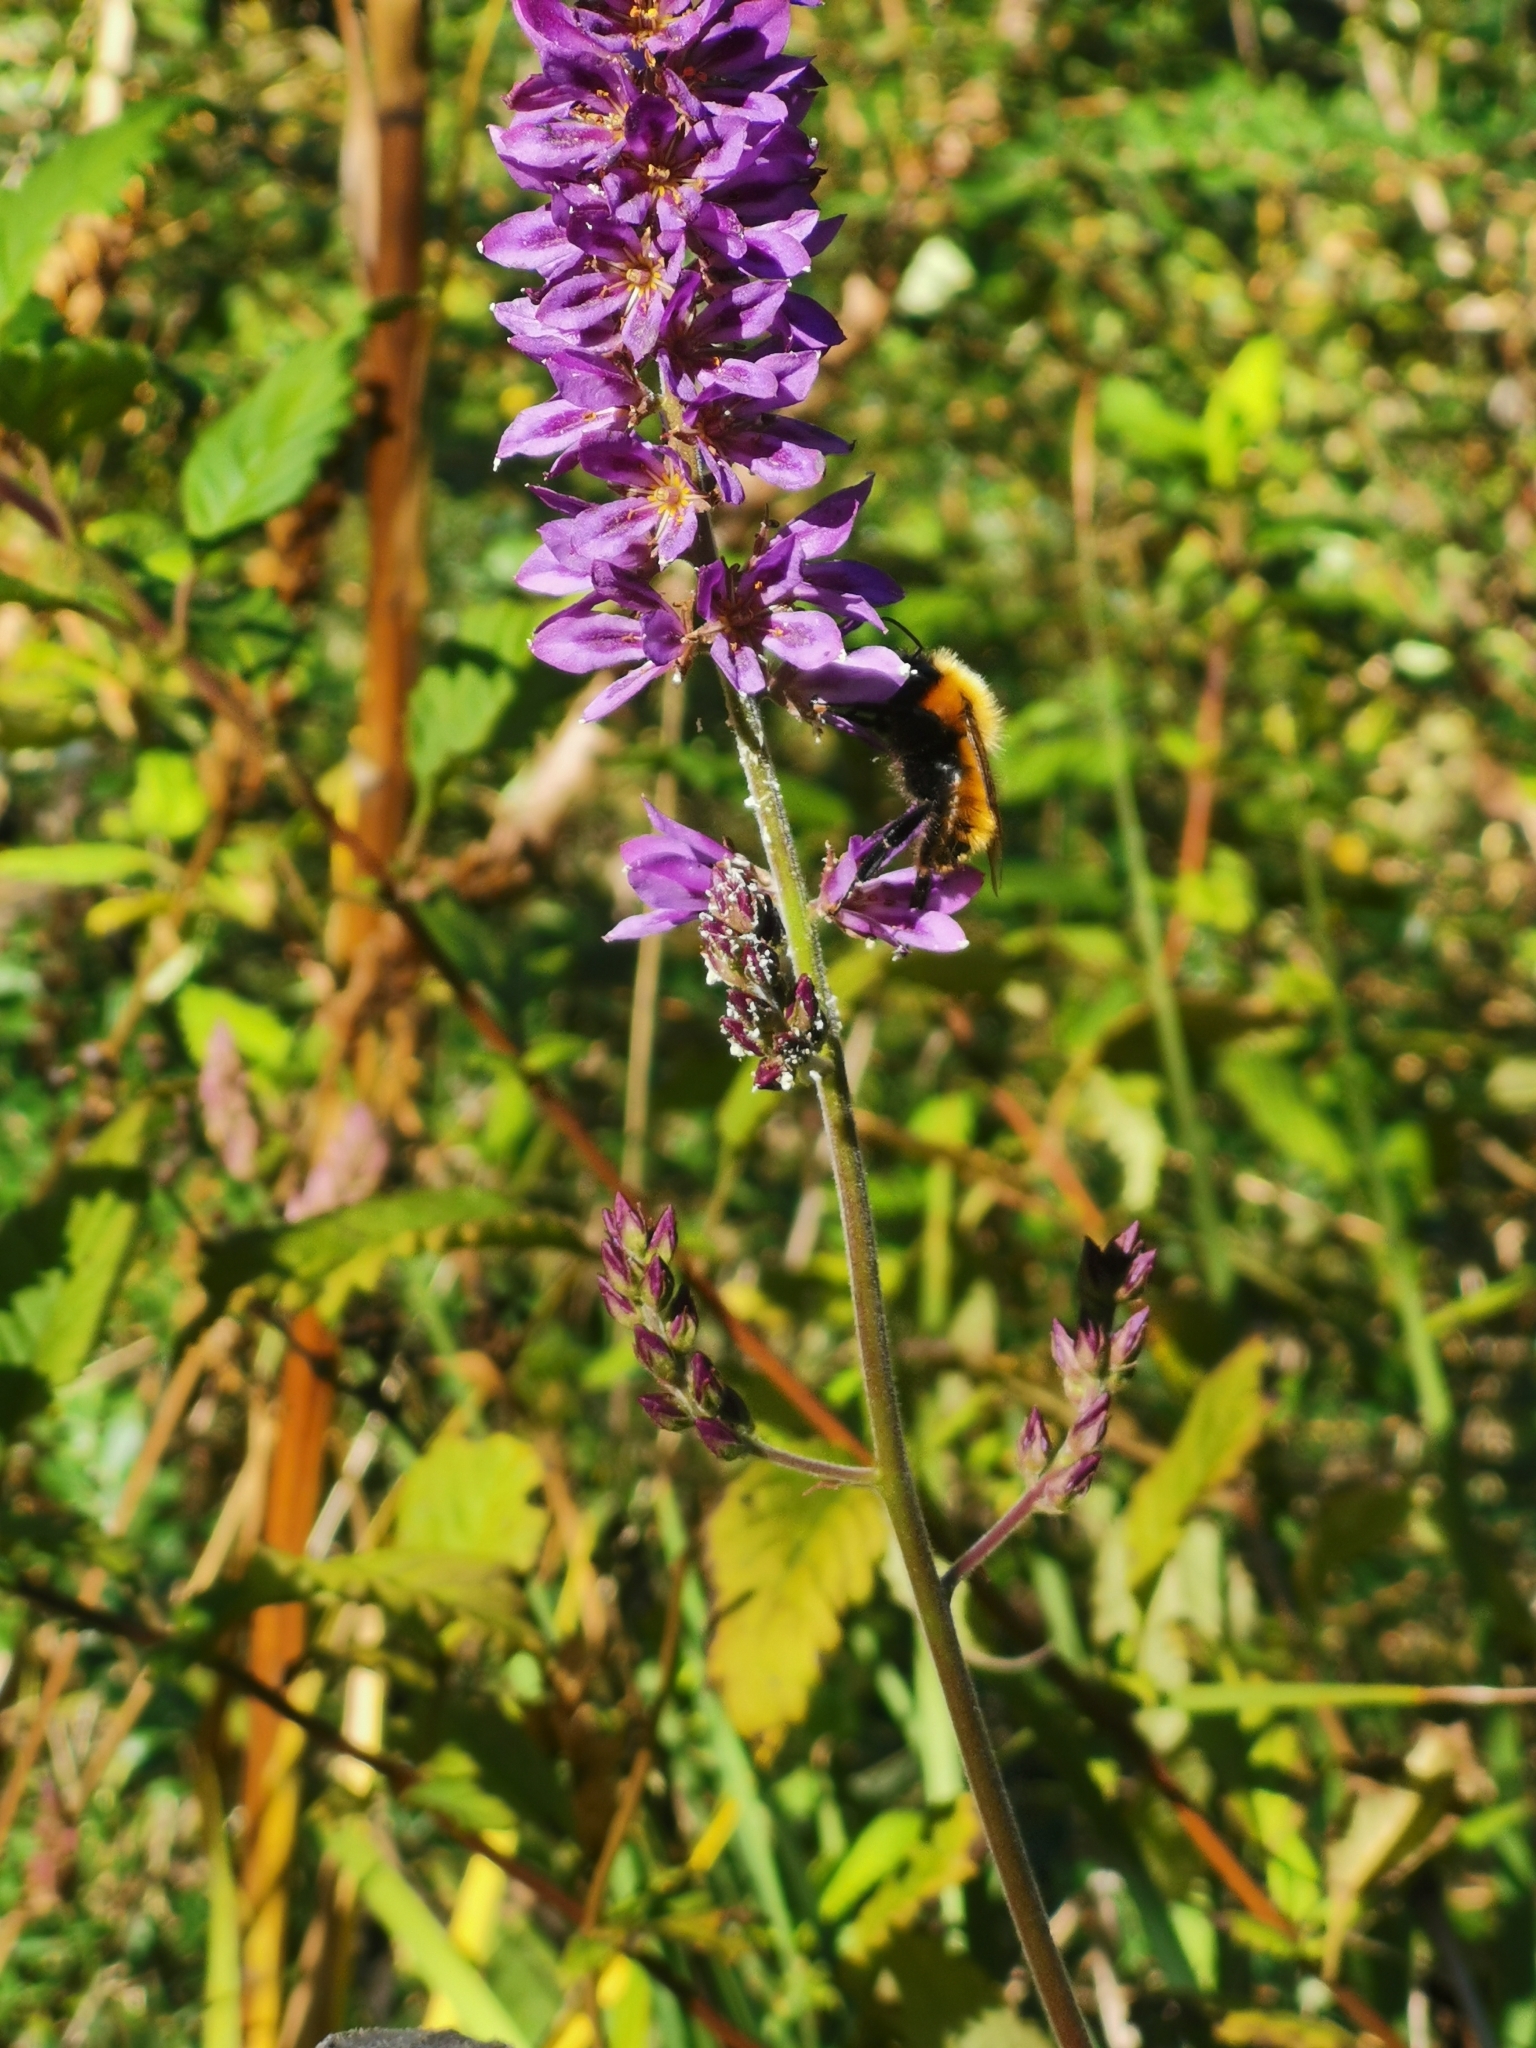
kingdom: Animalia
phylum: Arthropoda
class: Insecta
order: Hymenoptera
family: Apidae
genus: Bombus
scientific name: Bombus dahlbomii
